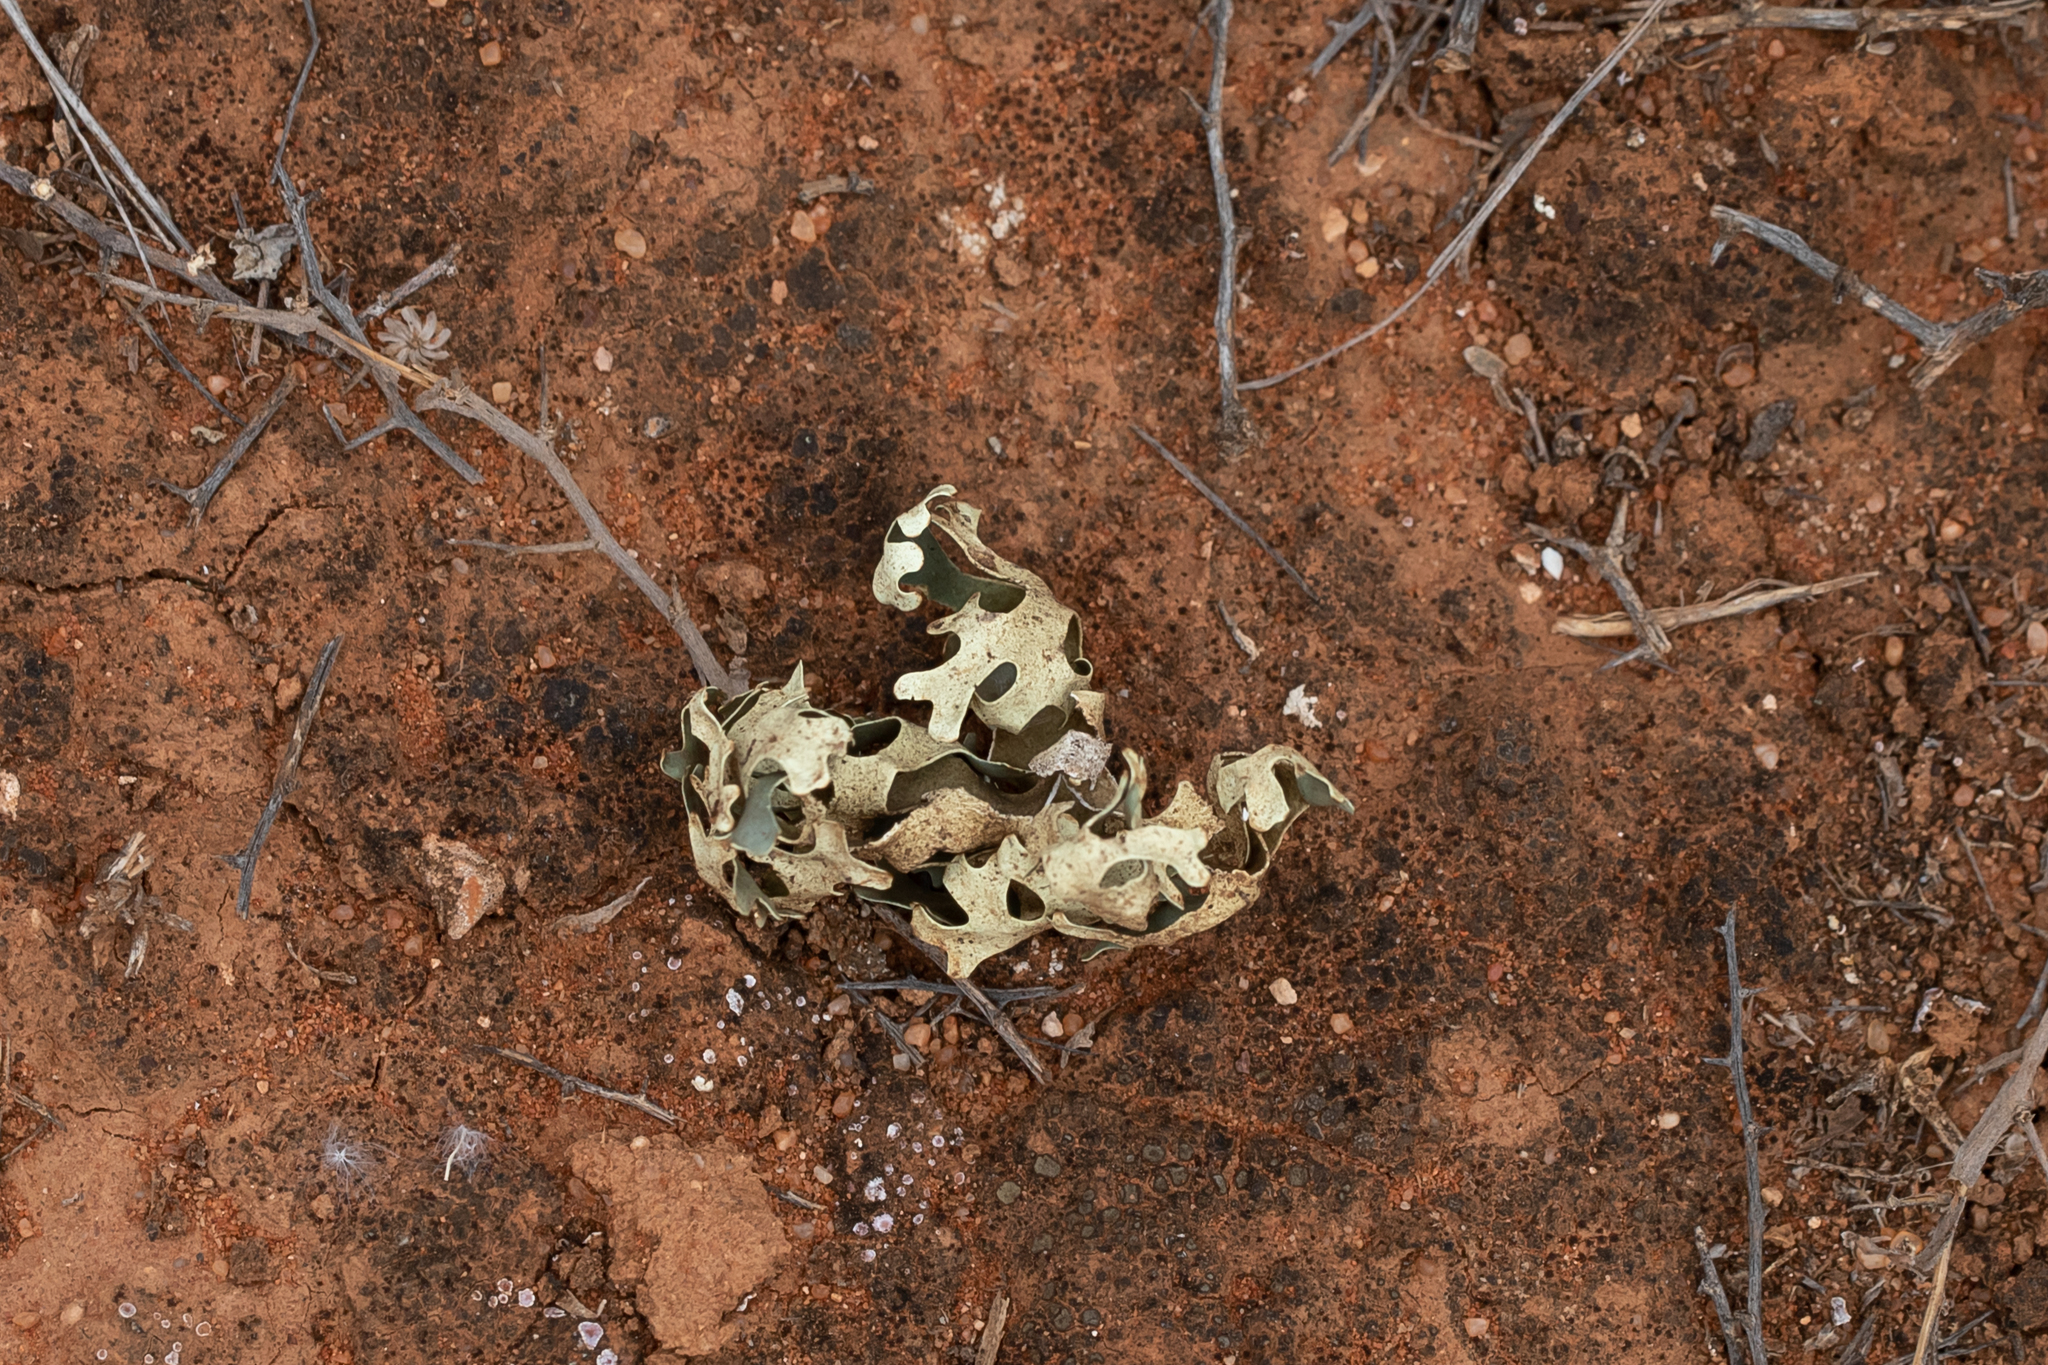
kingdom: Fungi
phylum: Ascomycota
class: Lecanoromycetes
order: Lecanorales
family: Parmeliaceae
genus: Xanthoparmelia
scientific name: Xanthoparmelia semiviridis
